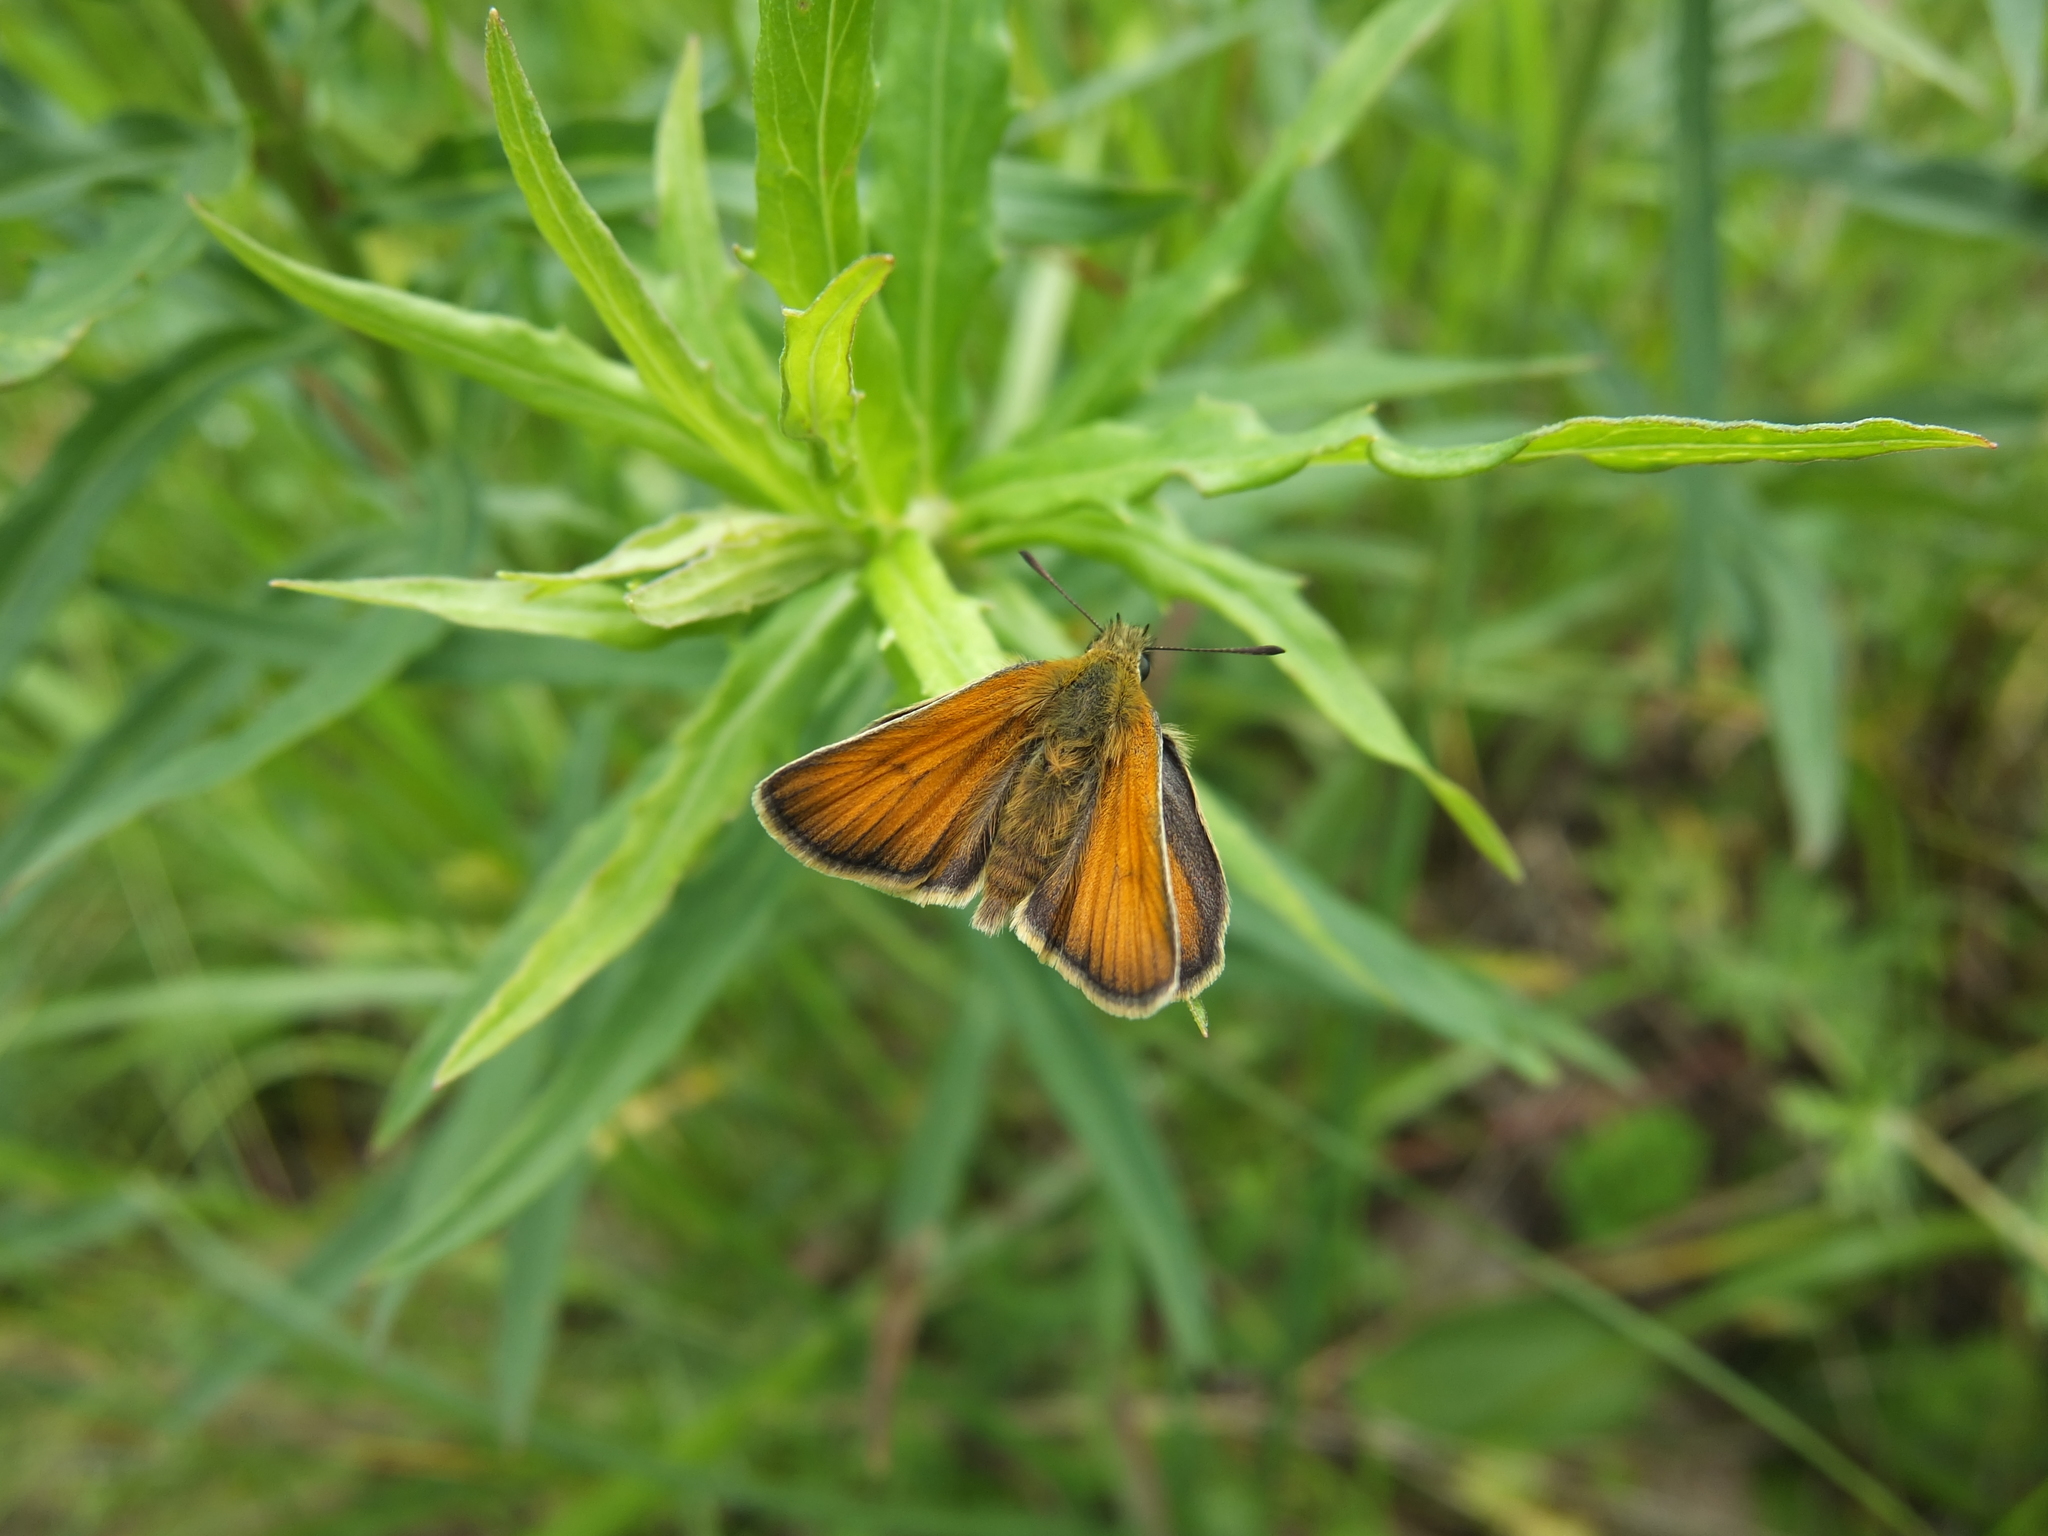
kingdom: Animalia
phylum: Arthropoda
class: Insecta
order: Lepidoptera
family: Hesperiidae
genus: Thymelicus
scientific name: Thymelicus lineola
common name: Essex skipper
